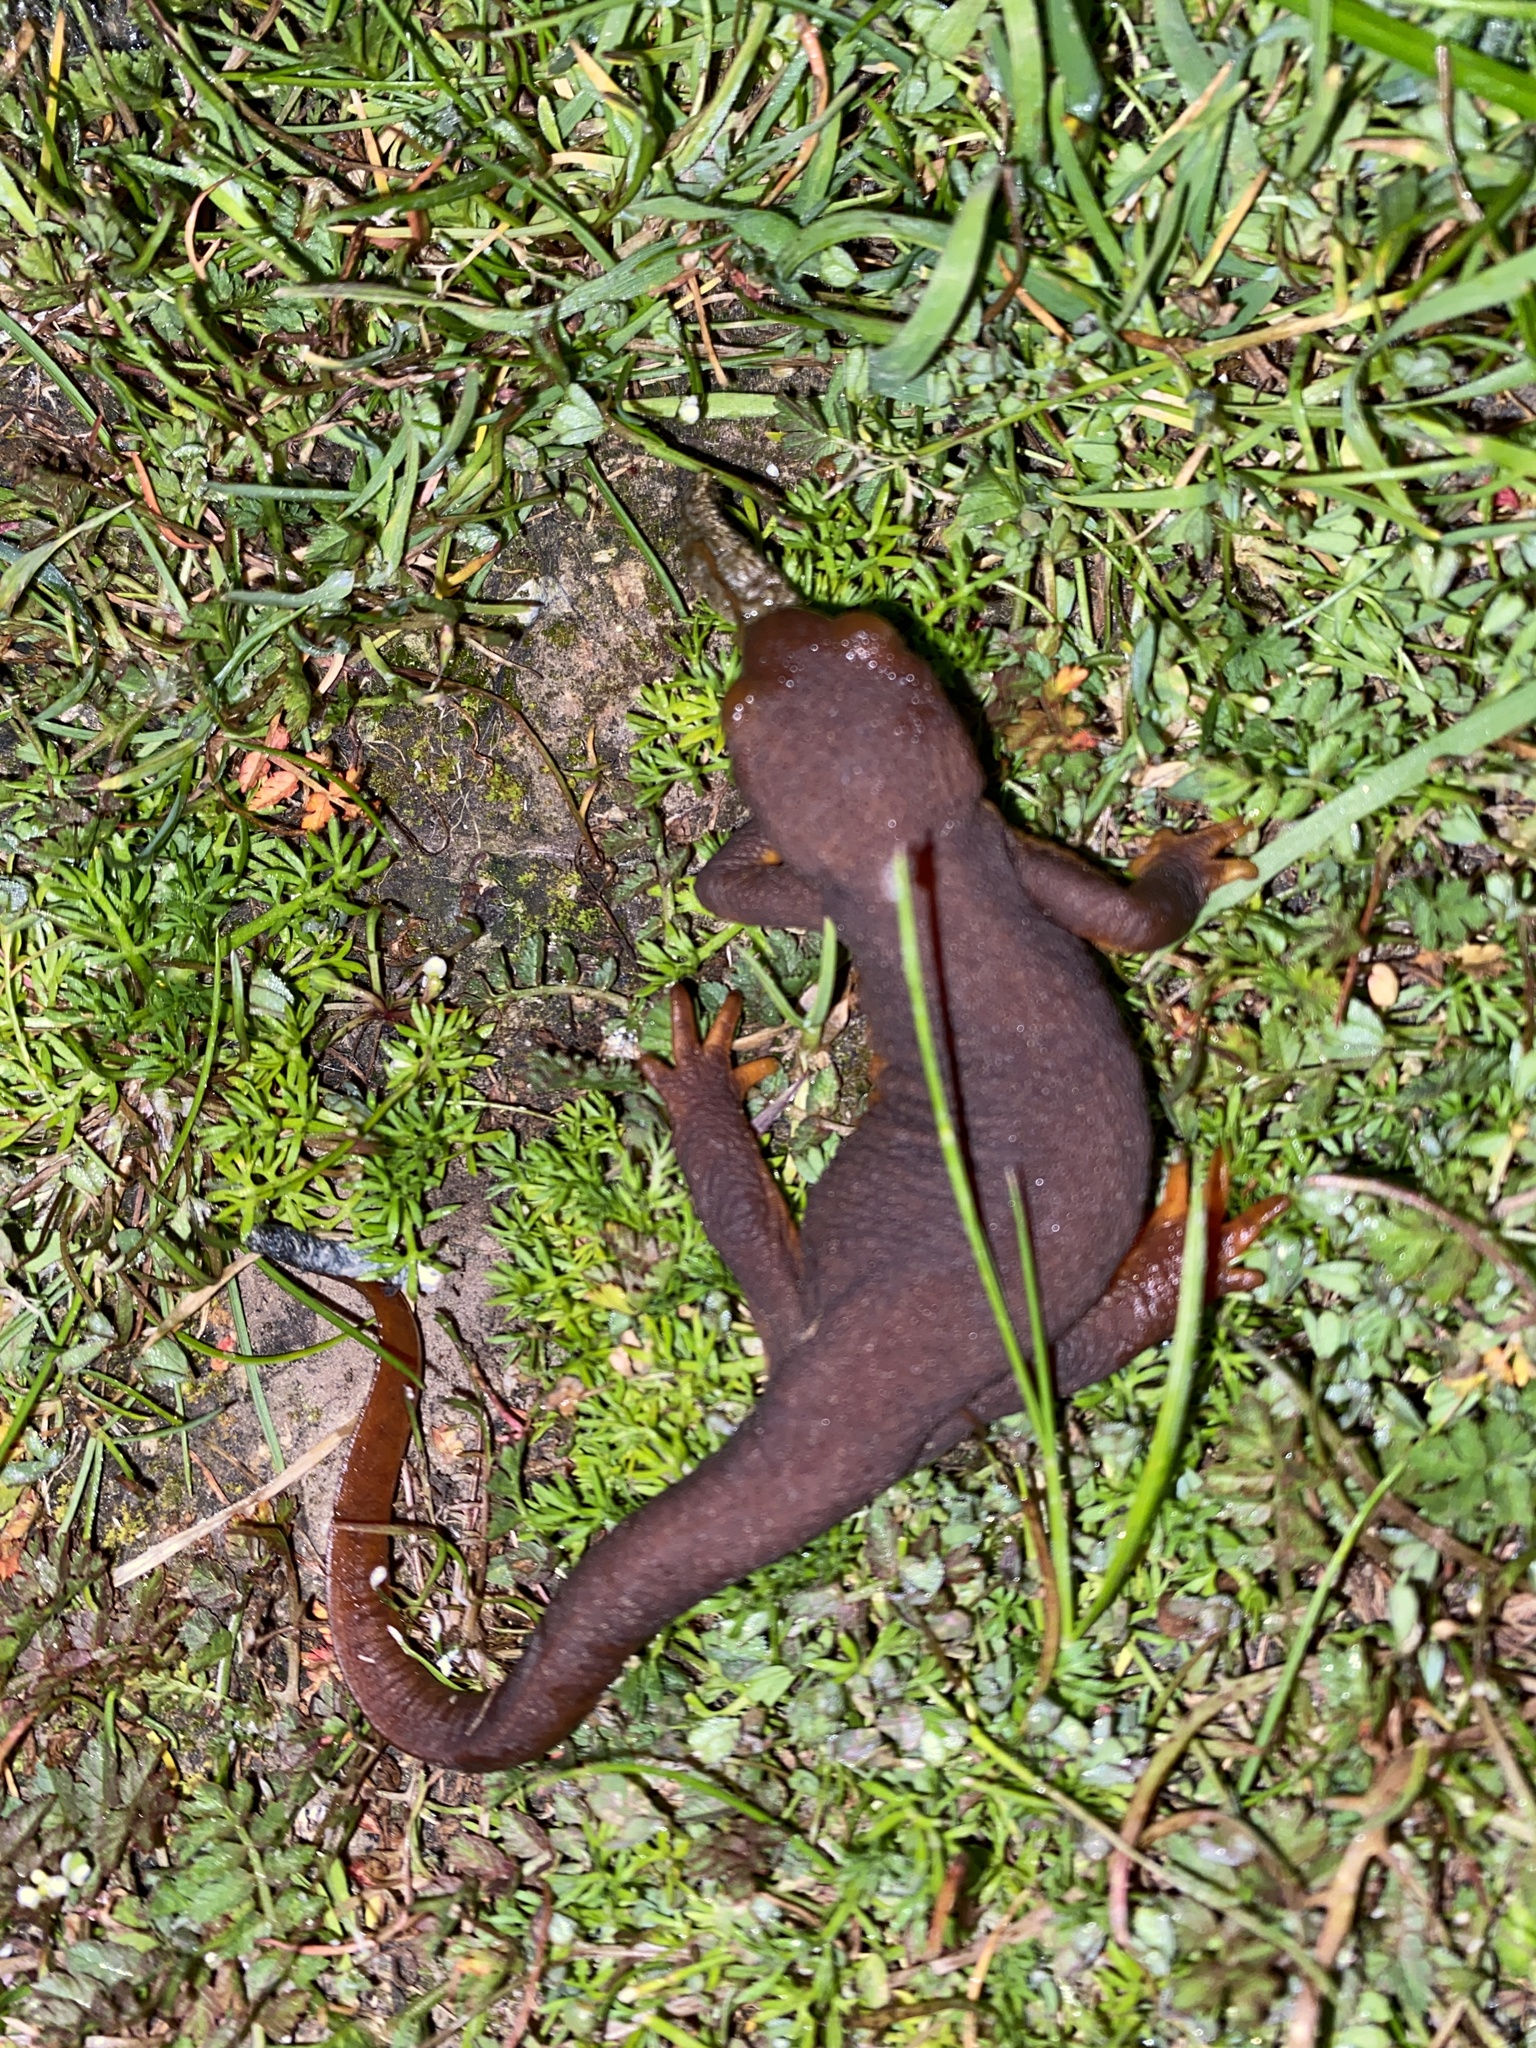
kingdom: Animalia
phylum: Chordata
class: Amphibia
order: Caudata
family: Salamandridae
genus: Taricha
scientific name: Taricha torosa
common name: California newt
